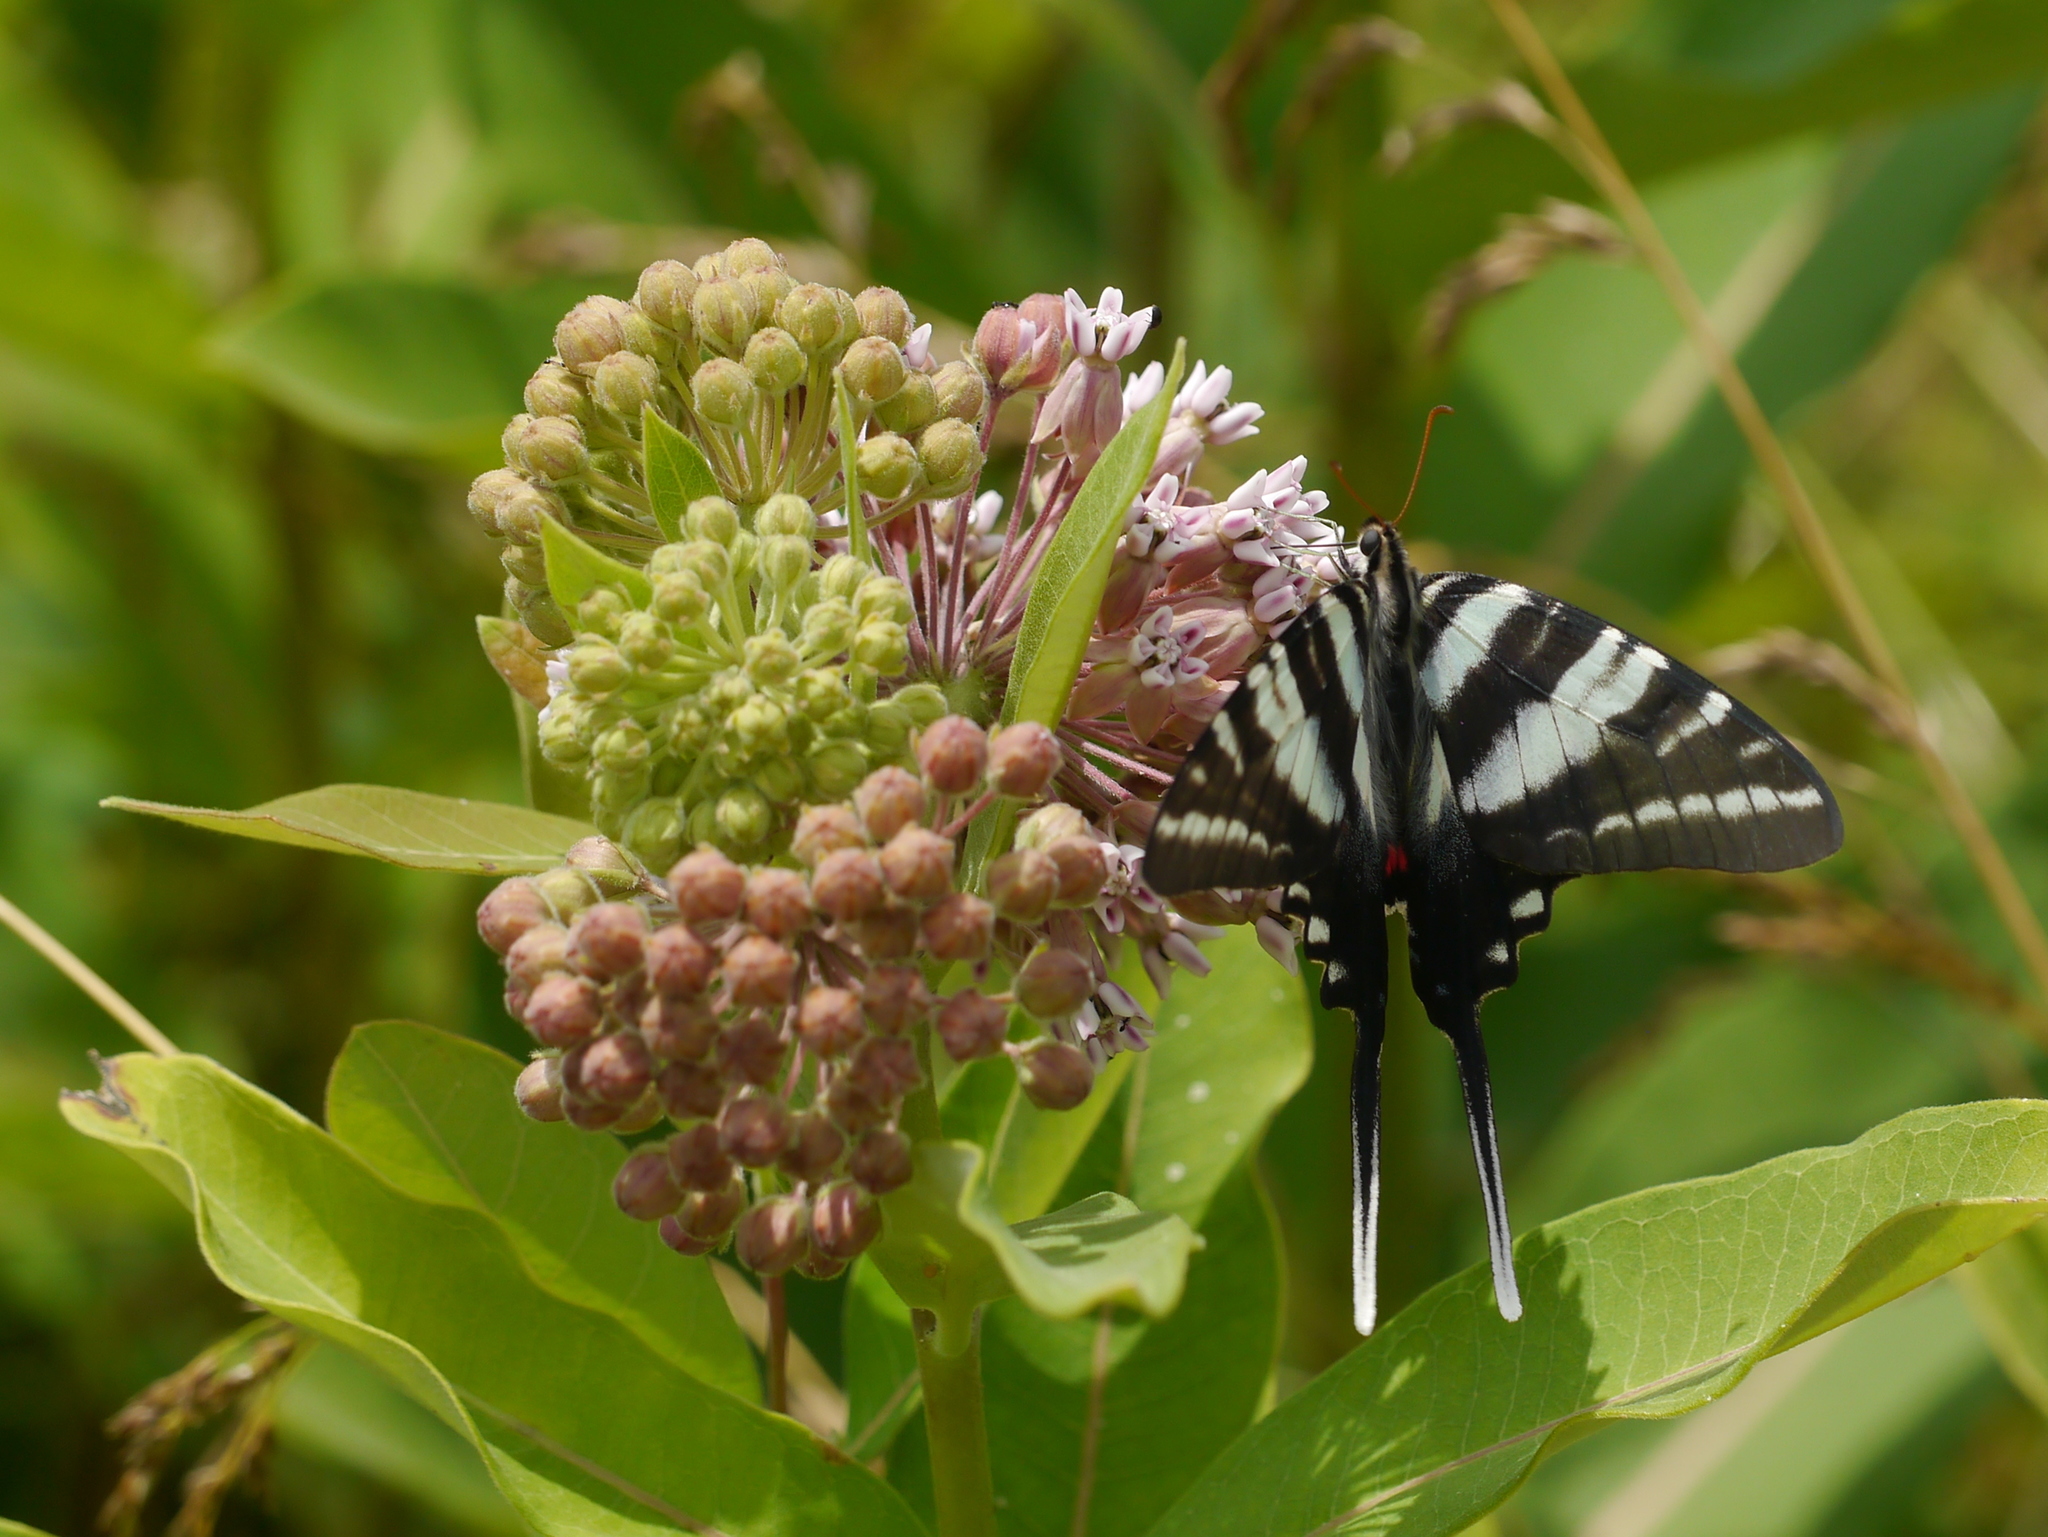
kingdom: Animalia
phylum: Arthropoda
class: Insecta
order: Lepidoptera
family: Papilionidae
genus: Protographium
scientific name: Protographium marcellus
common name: Zebra swallowtail
